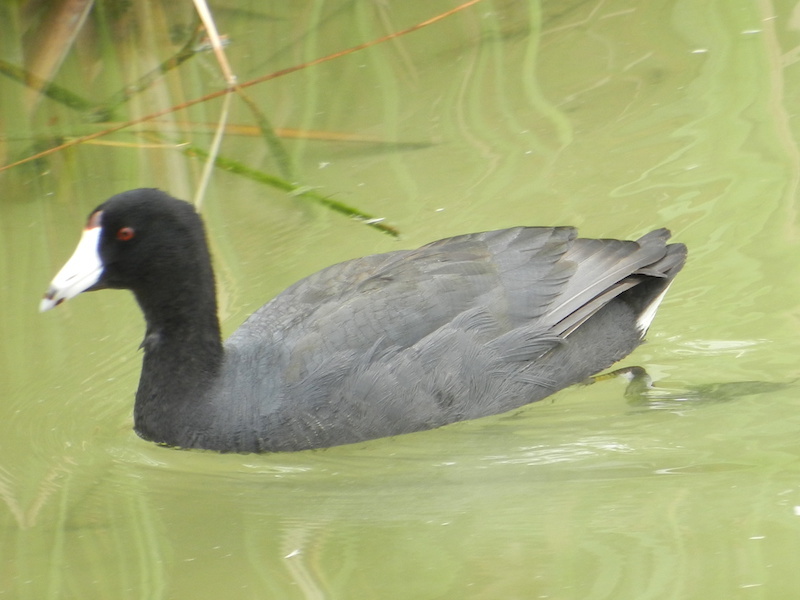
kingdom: Animalia
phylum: Chordata
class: Aves
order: Gruiformes
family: Rallidae
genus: Fulica
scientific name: Fulica americana
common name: American coot
